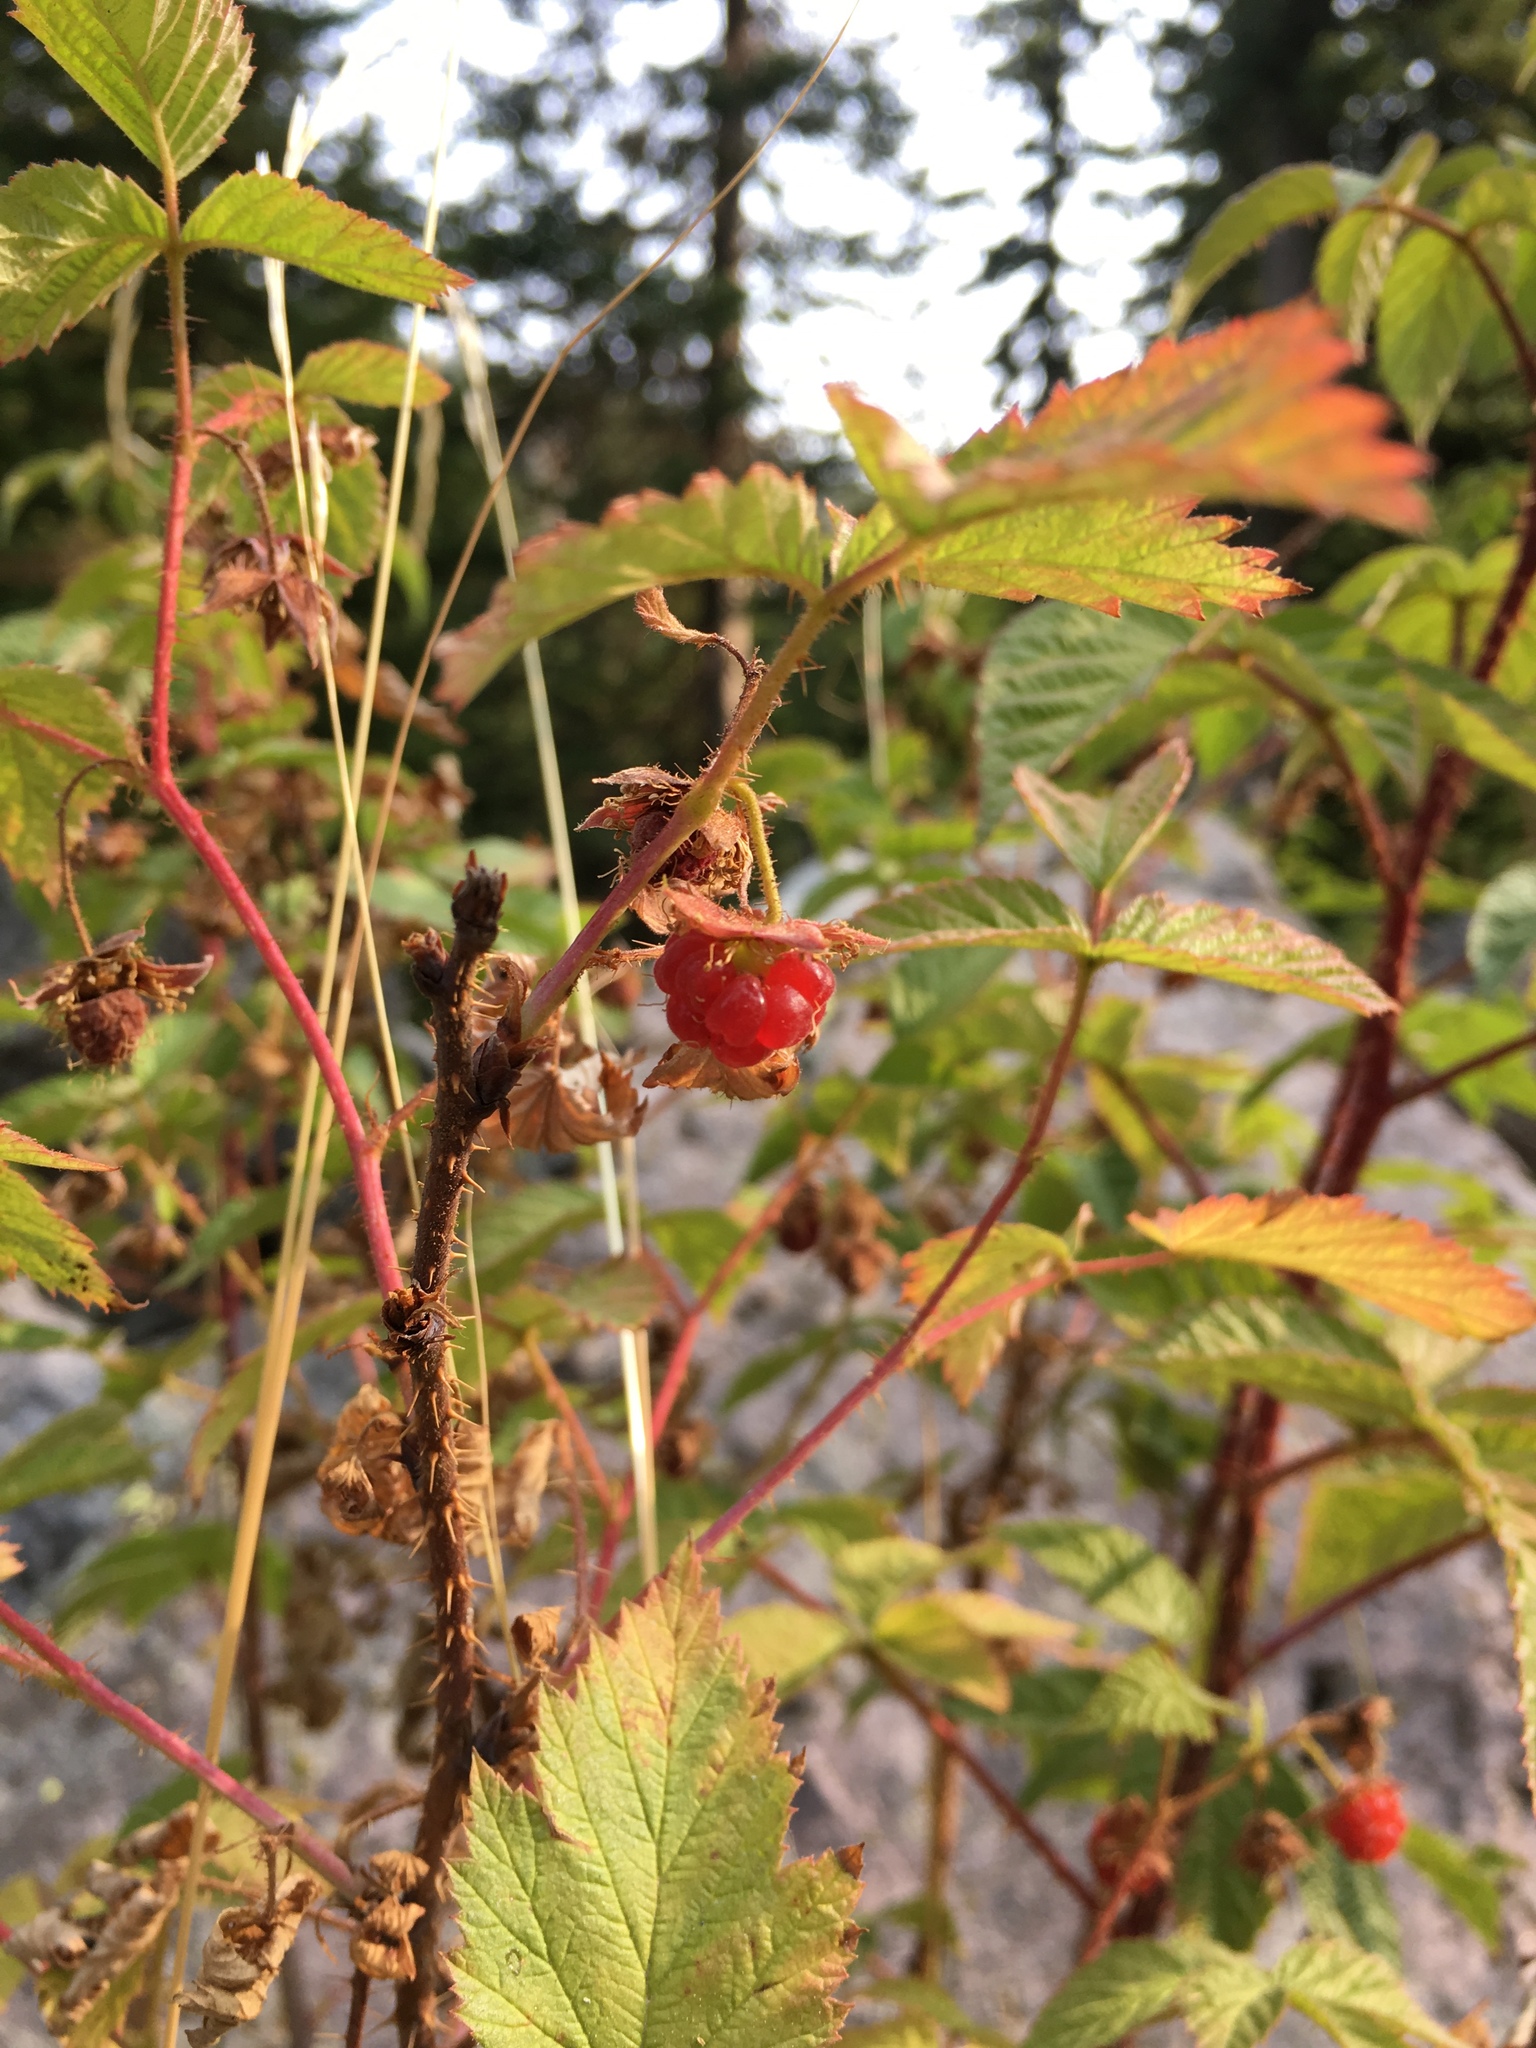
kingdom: Plantae
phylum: Tracheophyta
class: Magnoliopsida
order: Rosales
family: Rosaceae
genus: Rubus
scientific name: Rubus idaeus
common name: Raspberry
